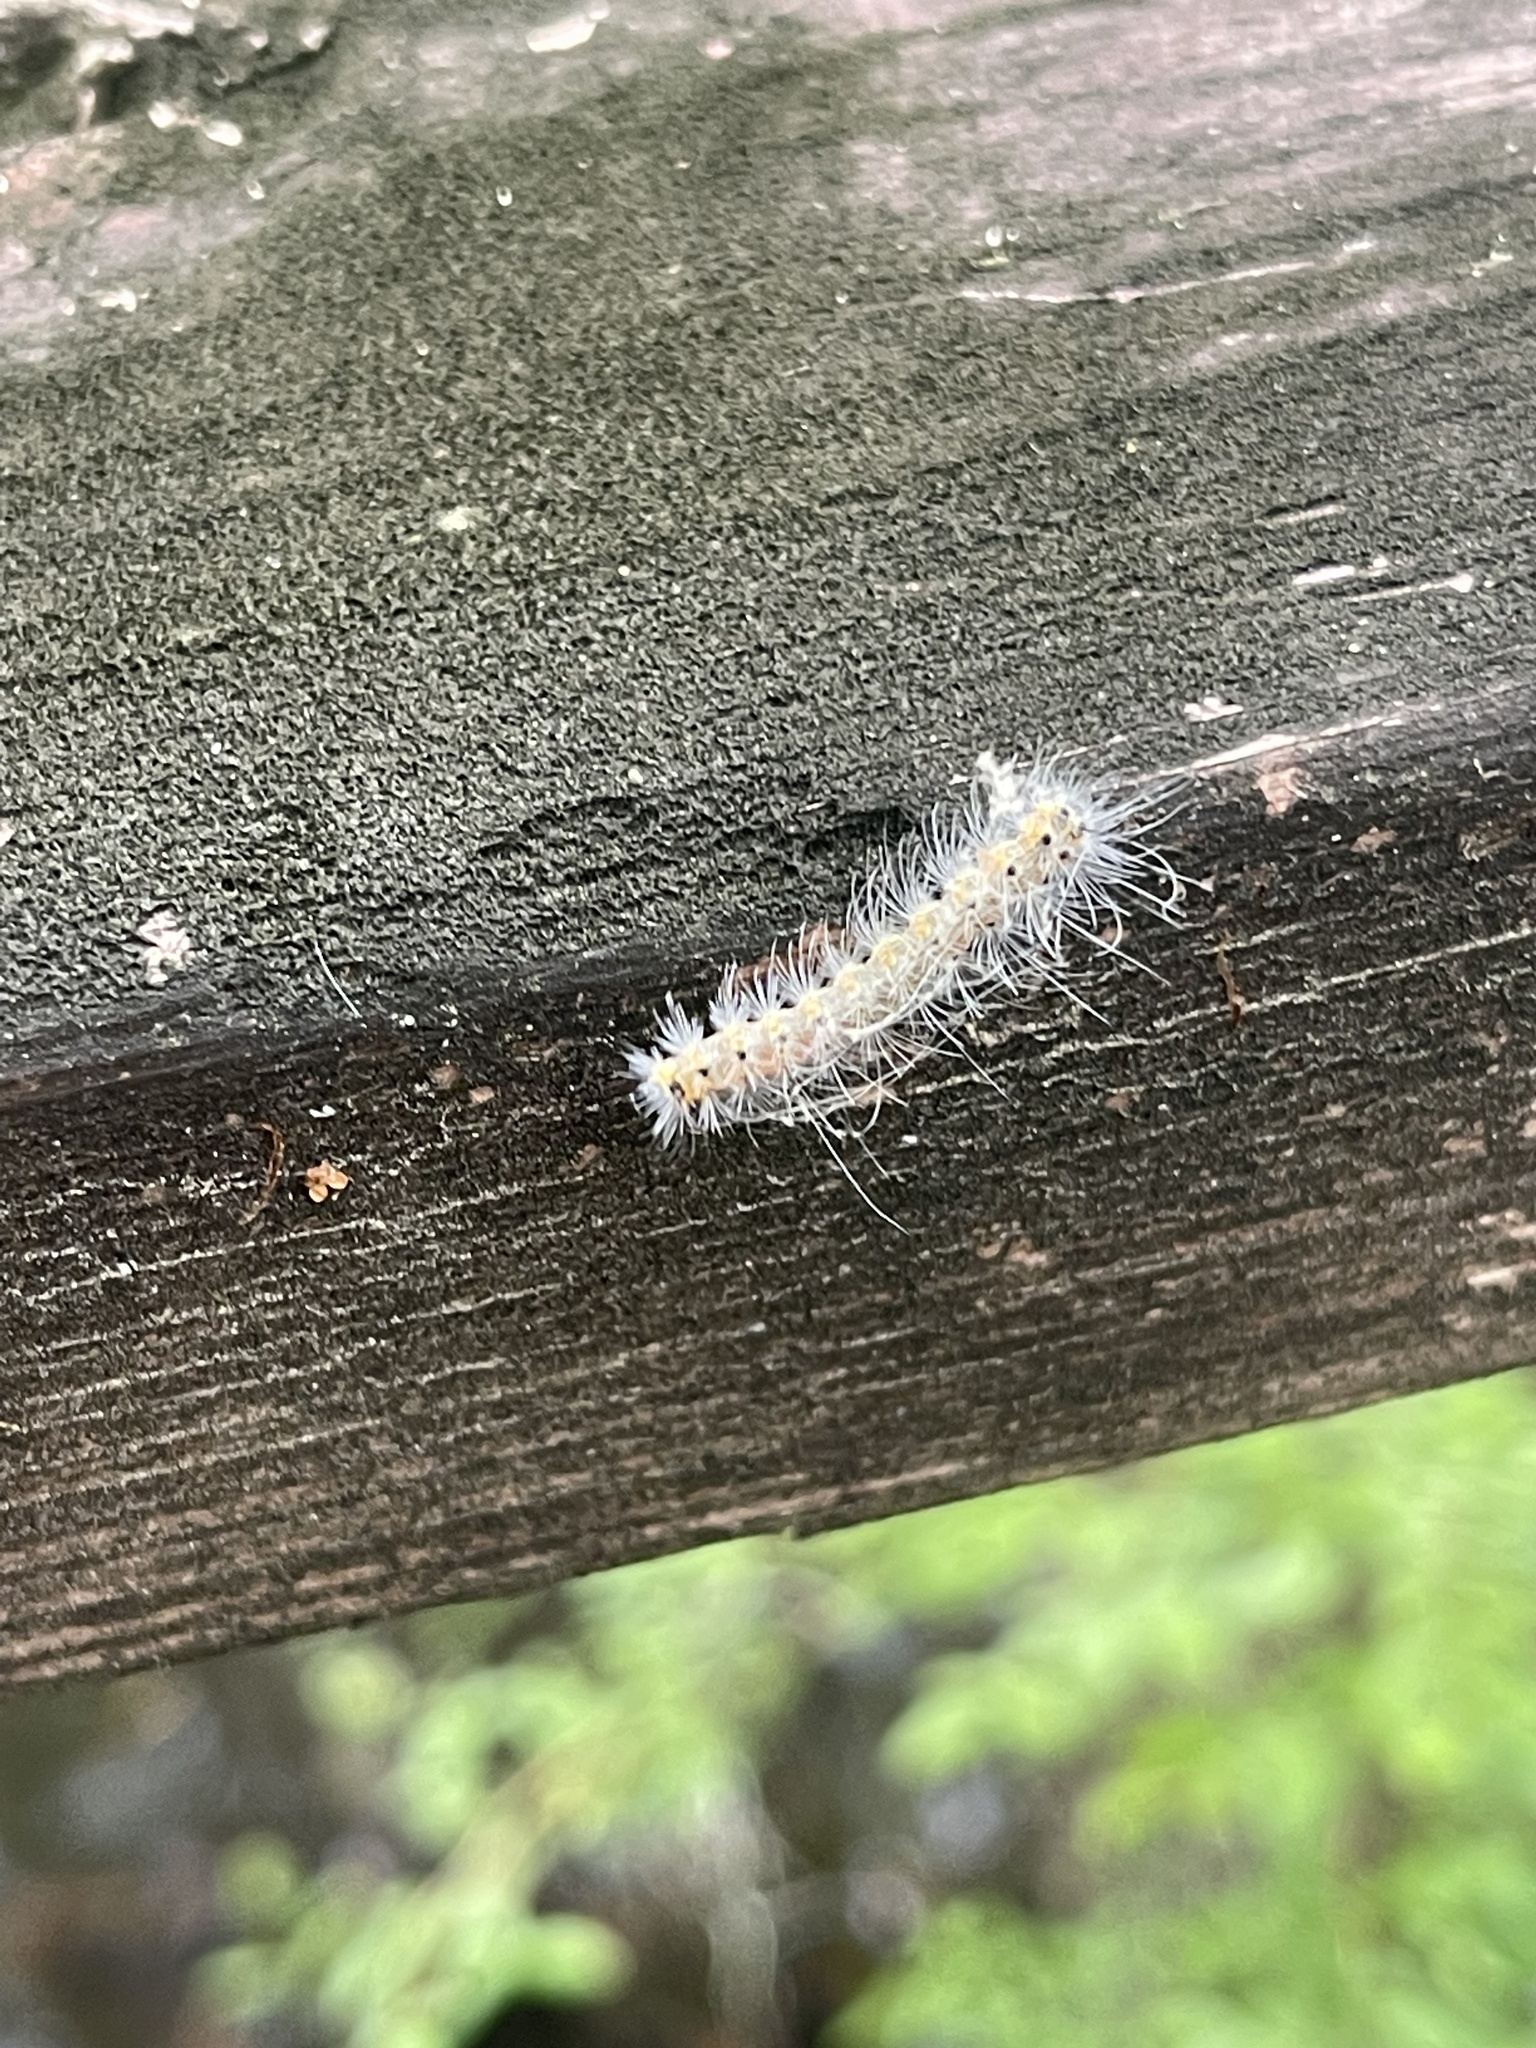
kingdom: Animalia
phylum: Arthropoda
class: Insecta
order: Lepidoptera
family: Erebidae
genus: Hyphantria
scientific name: Hyphantria cunea
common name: American white moth
